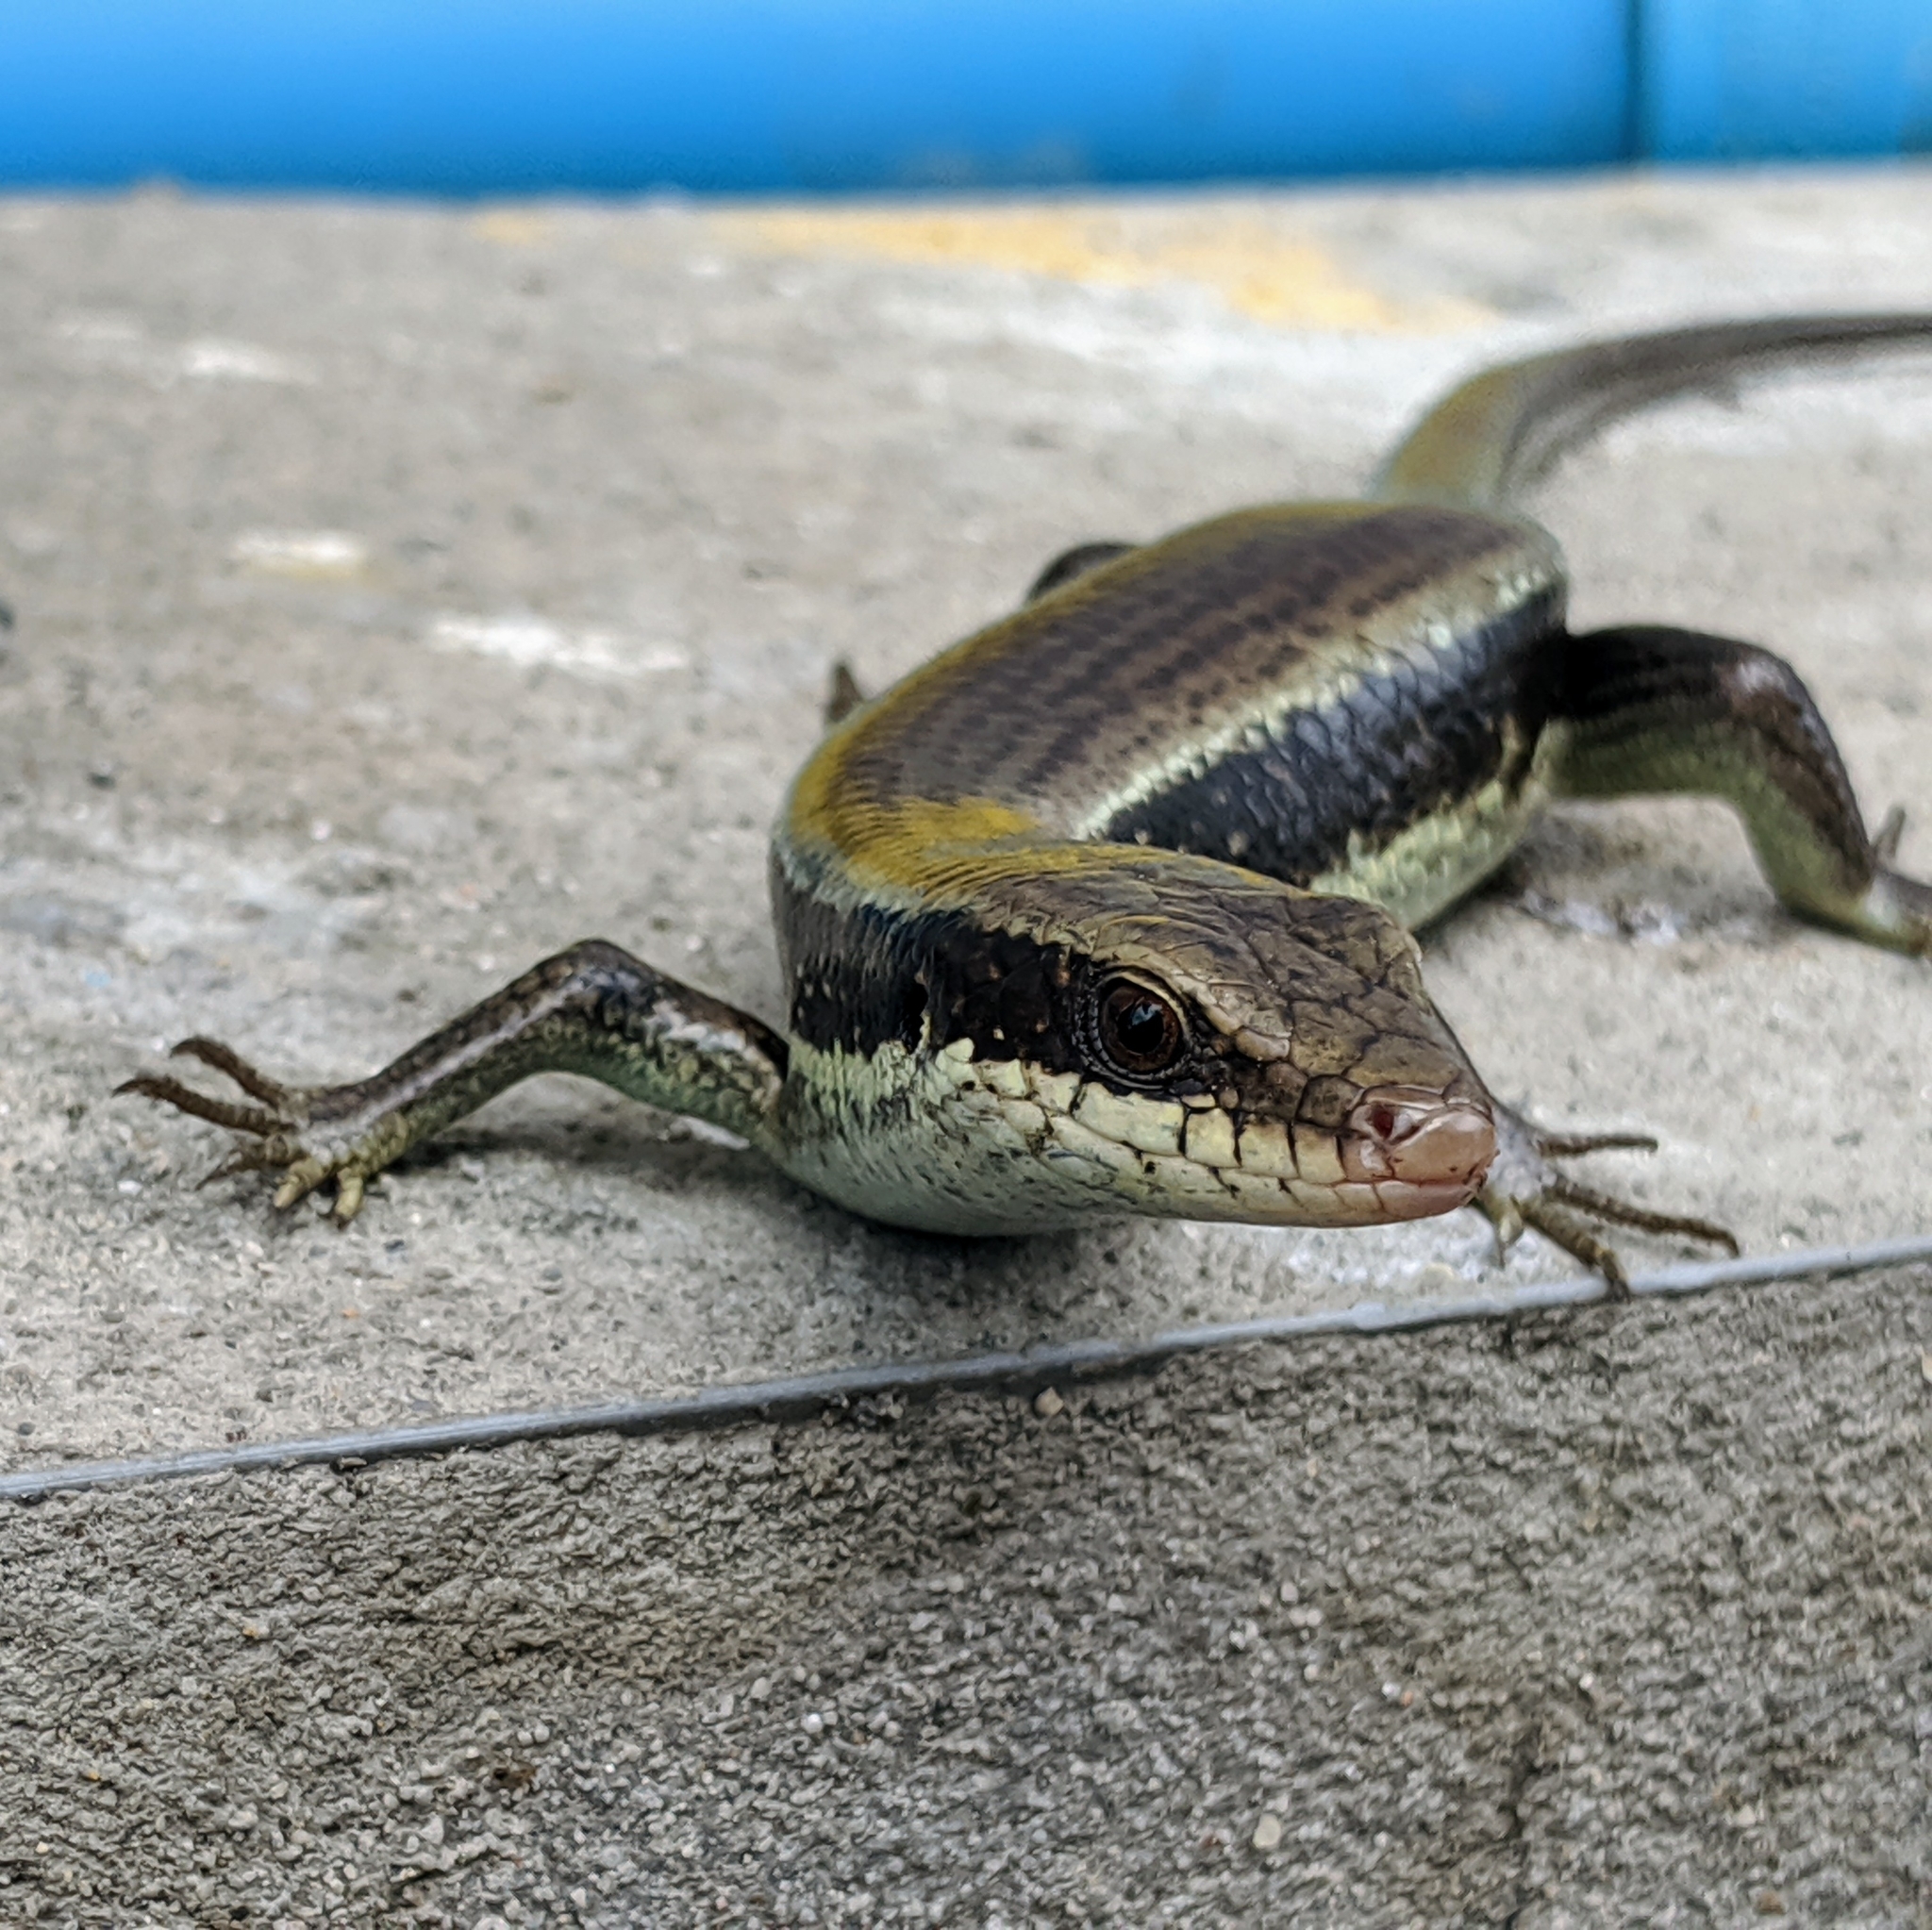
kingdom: Animalia
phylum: Chordata
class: Squamata
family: Scincidae
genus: Eutropis
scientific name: Eutropis longicaudata
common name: Long-tailed sun skink
